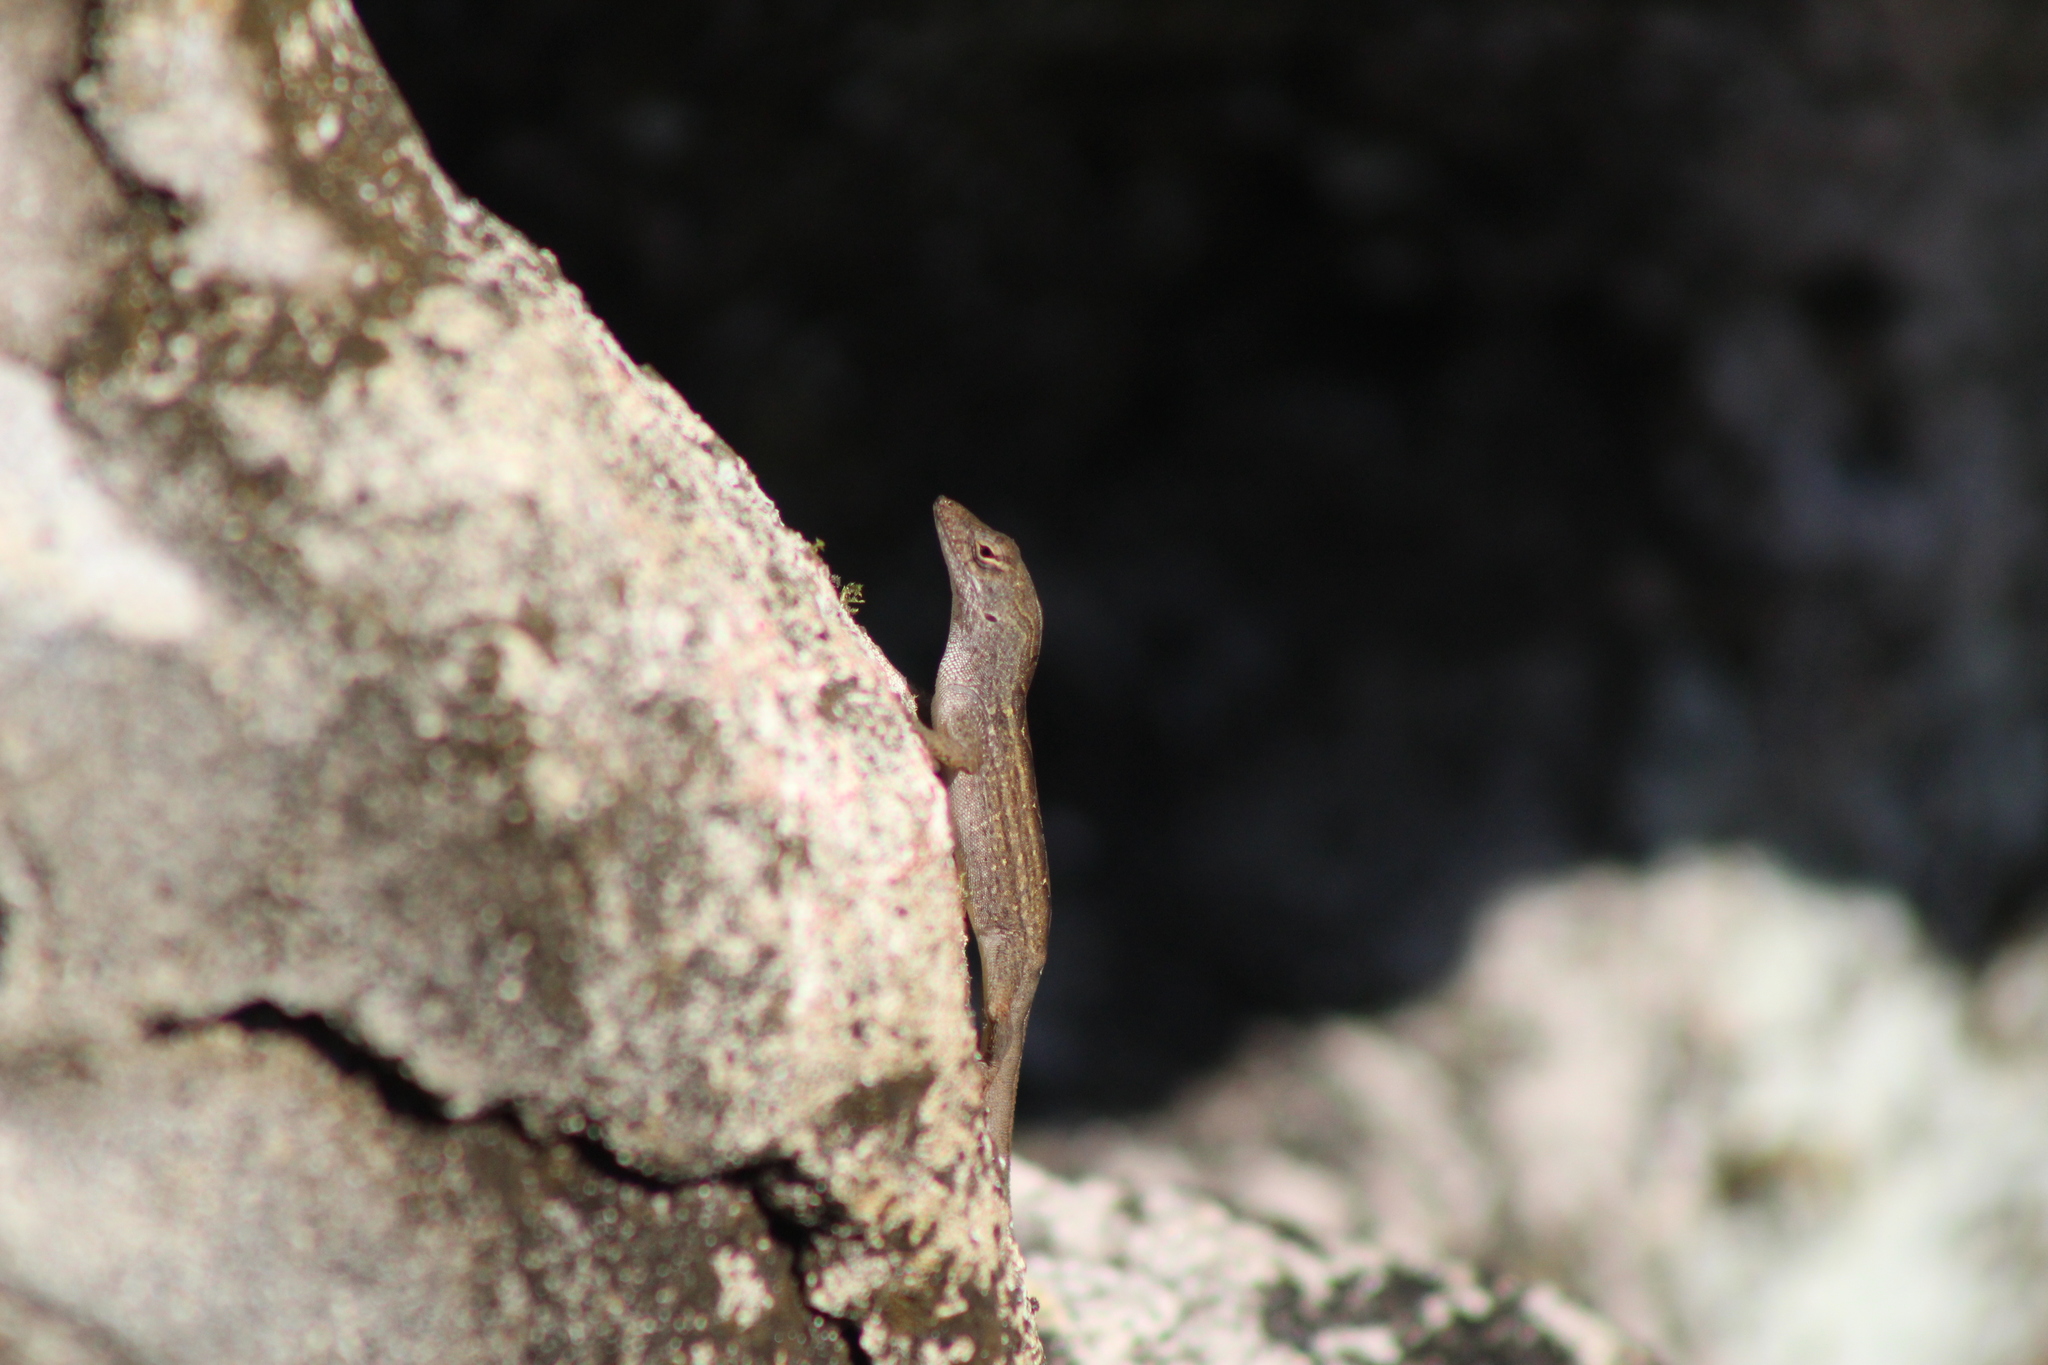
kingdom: Animalia
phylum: Chordata
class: Squamata
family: Dactyloidae
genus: Anolis
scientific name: Anolis sagrei
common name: Brown anole
